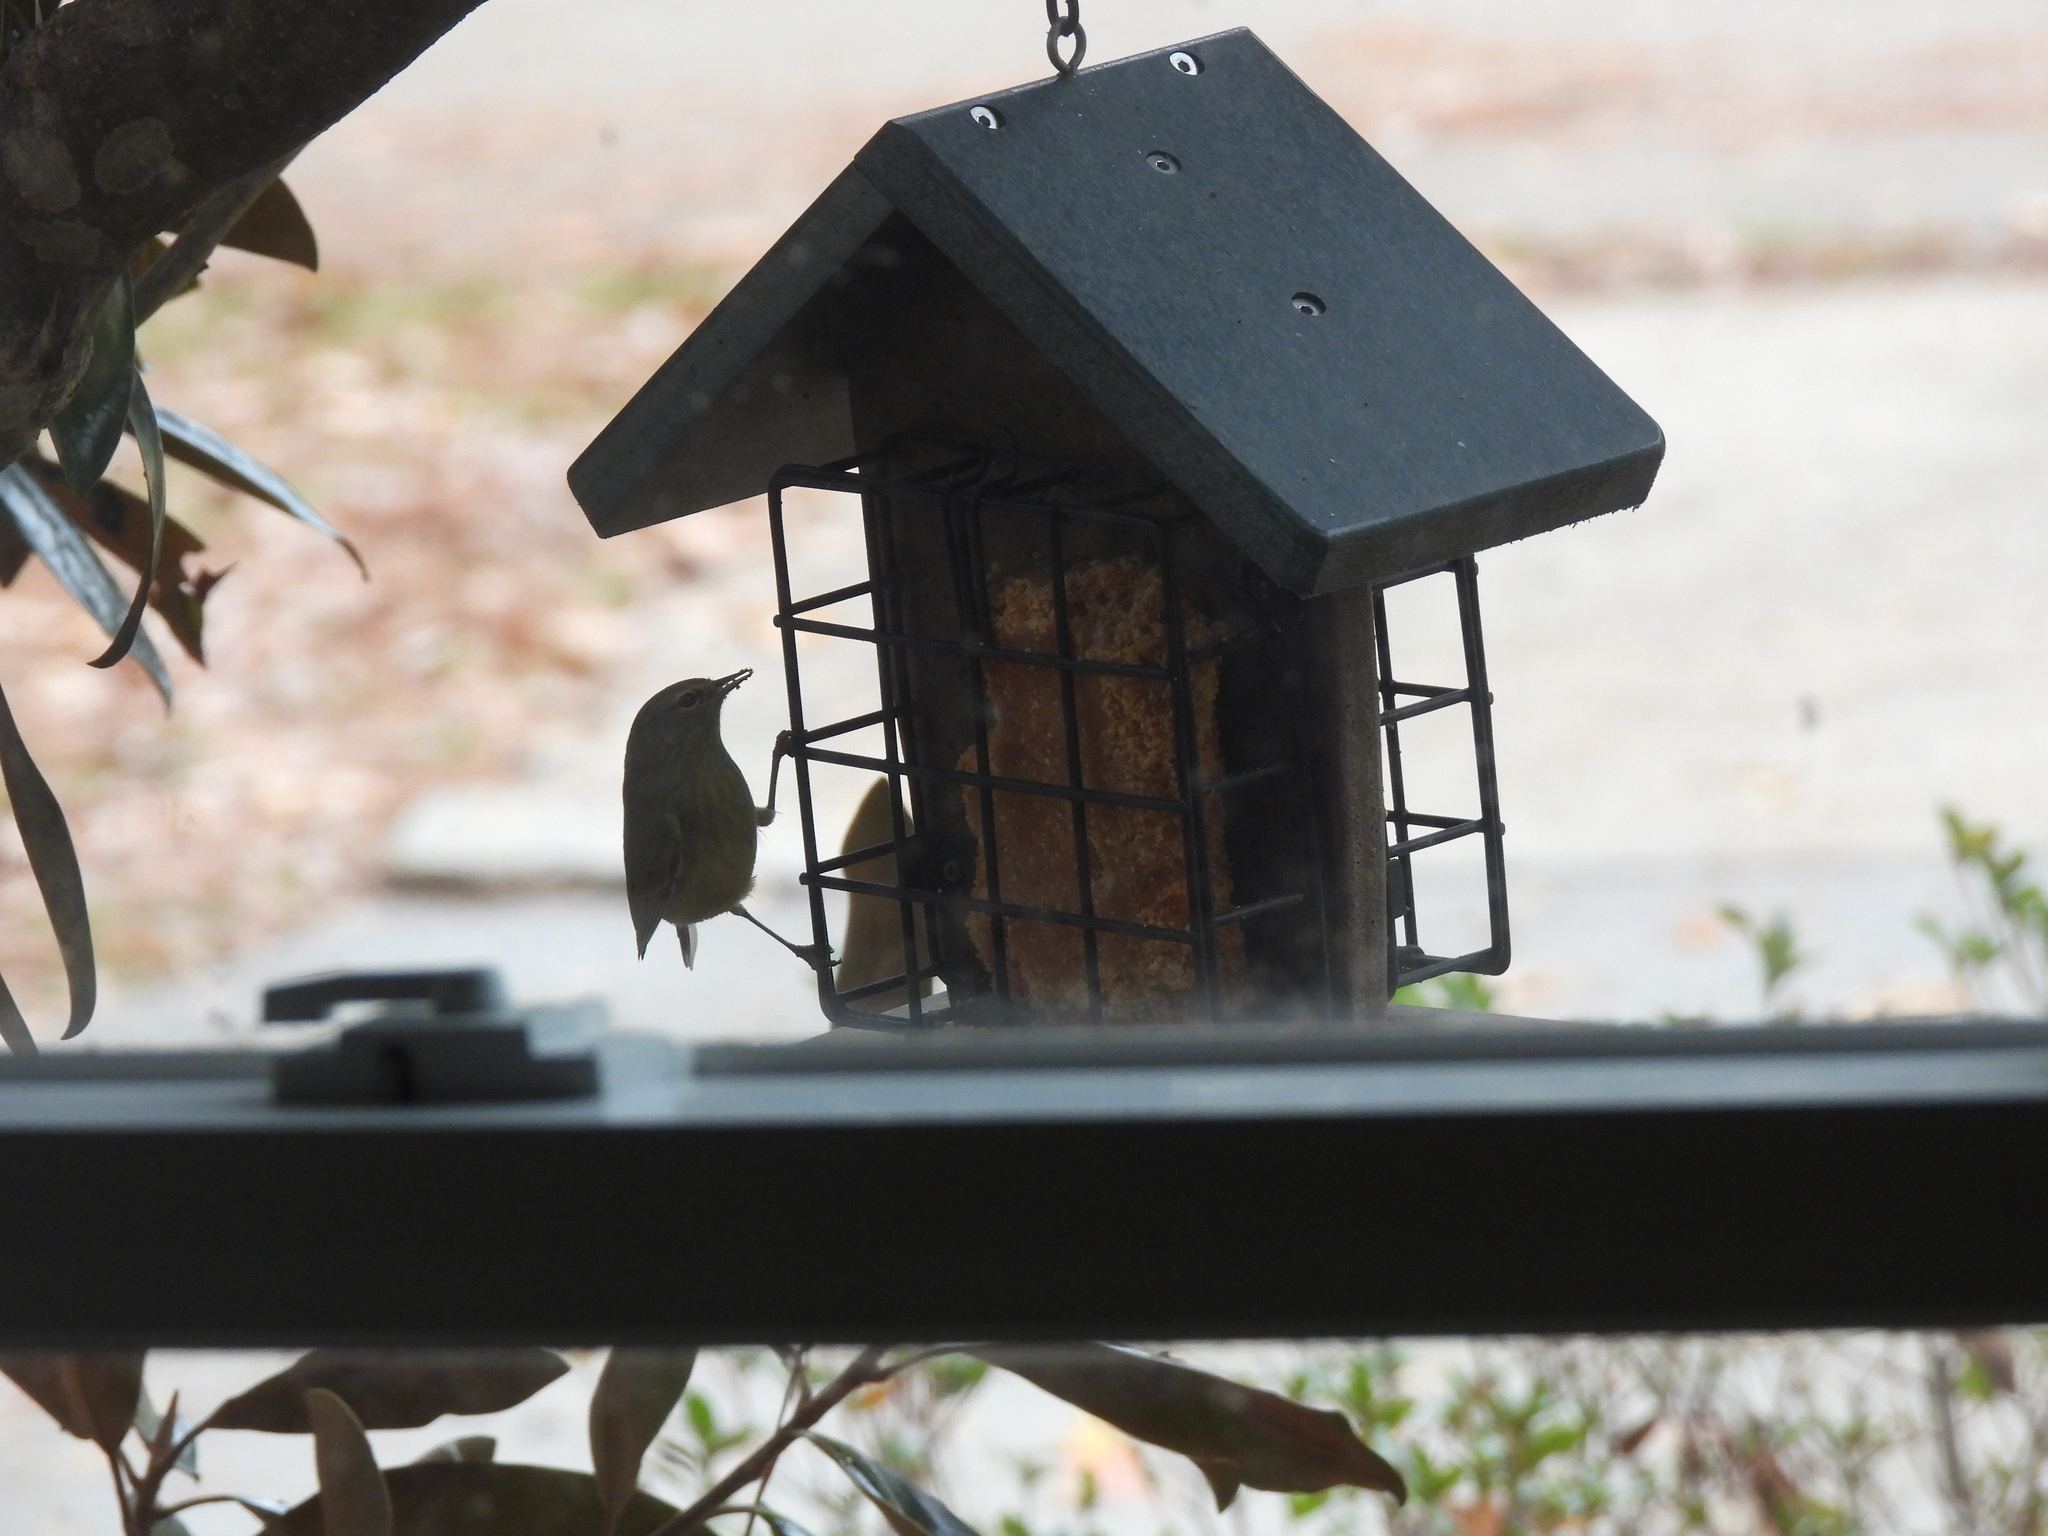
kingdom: Animalia
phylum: Chordata
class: Aves
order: Passeriformes
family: Parulidae
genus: Leiothlypis
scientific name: Leiothlypis celata
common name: Orange-crowned warbler
